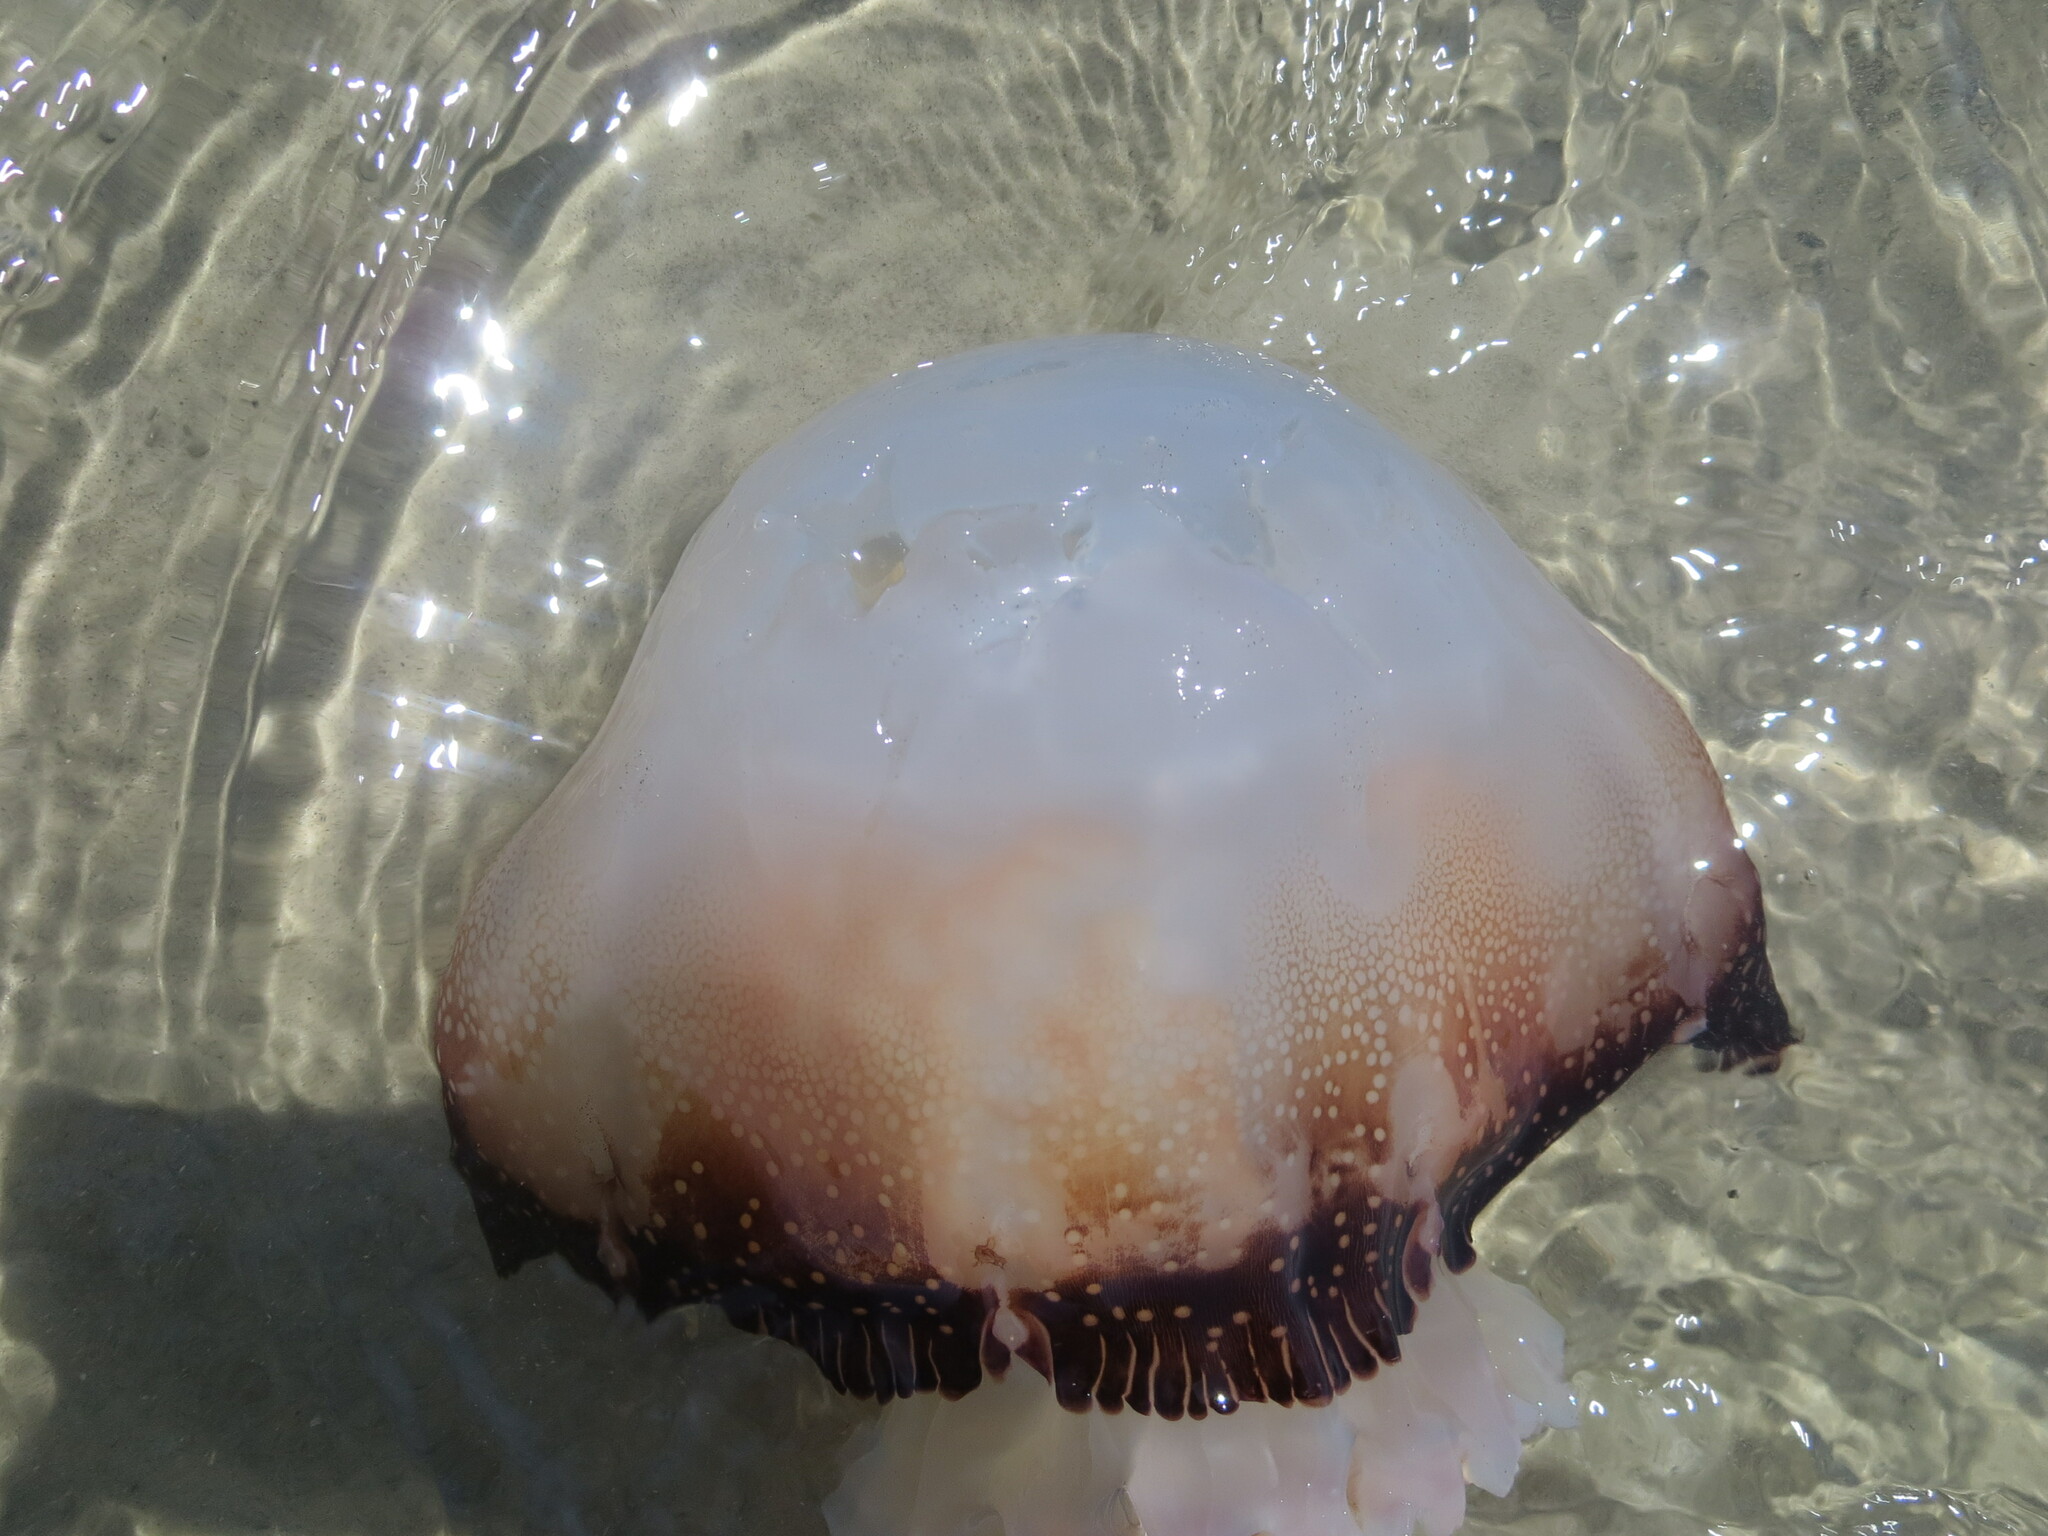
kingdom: Animalia
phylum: Cnidaria
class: Scyphozoa
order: Rhizostomeae
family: Stomolophidae
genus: Stomolophus
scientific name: Stomolophus meleagris
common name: Cabbagehead
